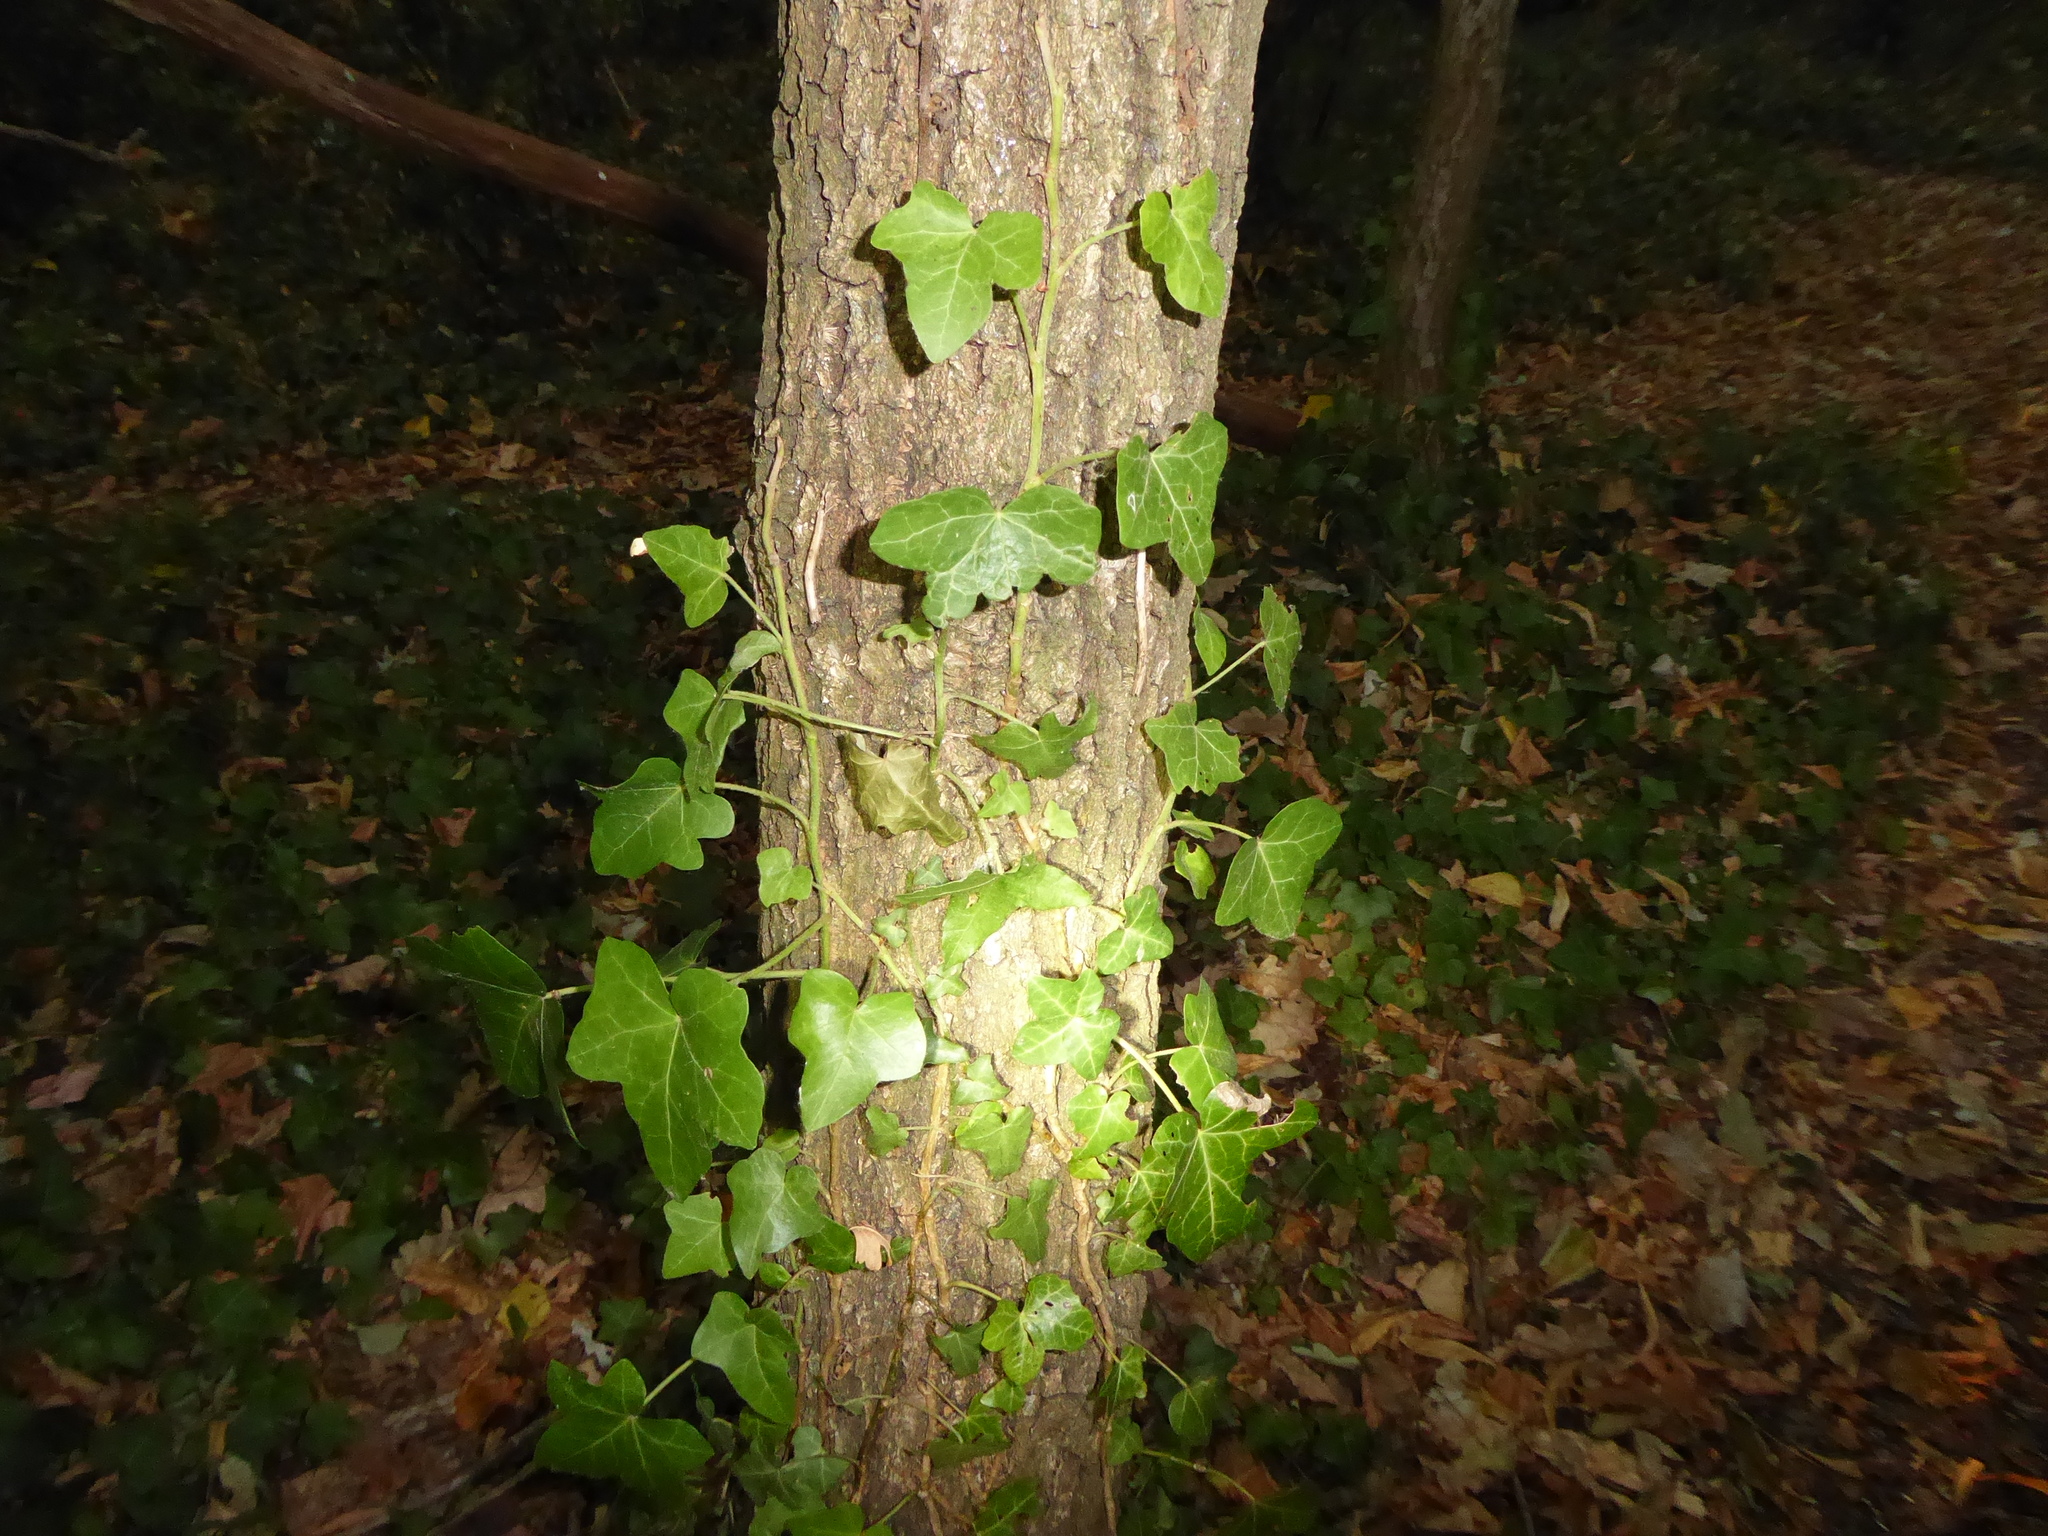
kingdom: Plantae
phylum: Tracheophyta
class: Magnoliopsida
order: Apiales
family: Araliaceae
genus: Hedera
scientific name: Hedera helix
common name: Ivy
